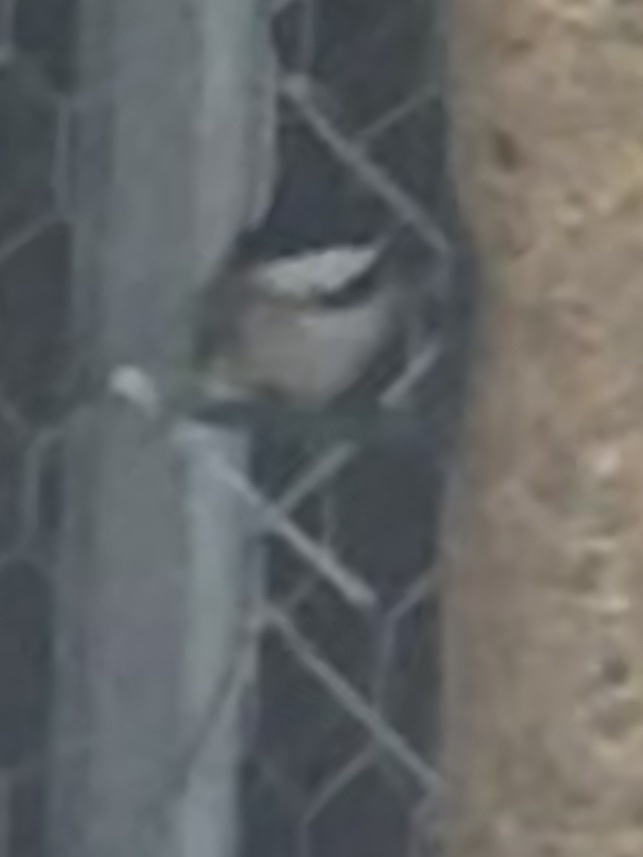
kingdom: Animalia
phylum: Chordata
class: Aves
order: Passeriformes
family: Paridae
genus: Poecile
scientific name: Poecile carolinensis
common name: Carolina chickadee
